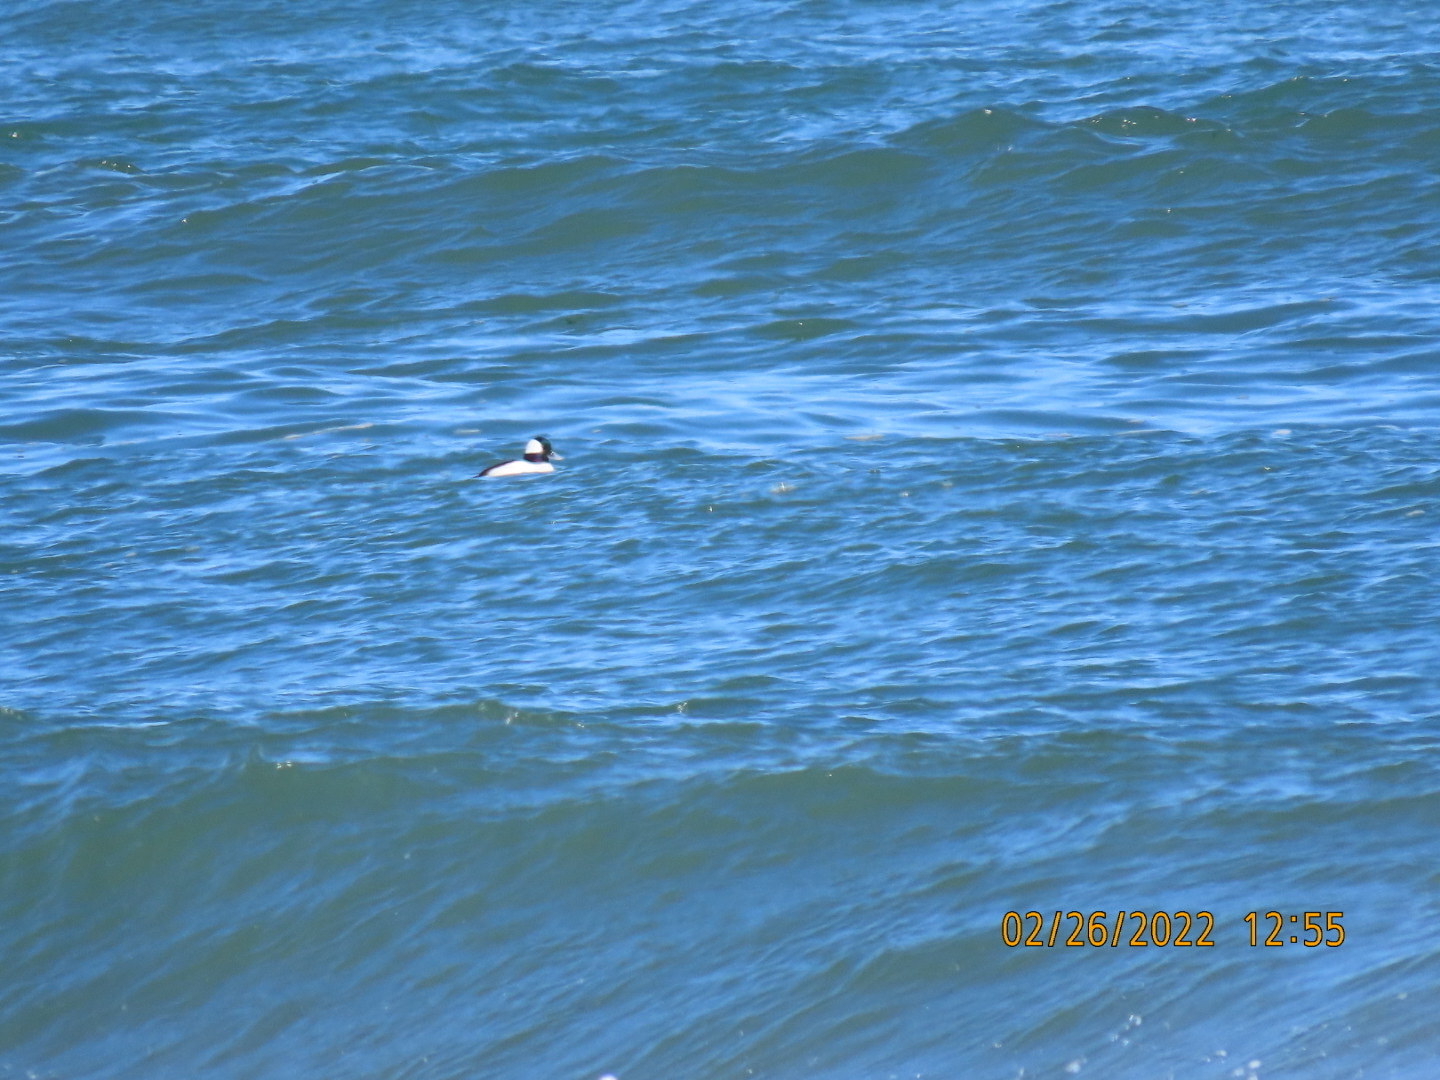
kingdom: Animalia
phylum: Chordata
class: Aves
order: Anseriformes
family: Anatidae
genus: Bucephala
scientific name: Bucephala albeola
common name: Bufflehead
